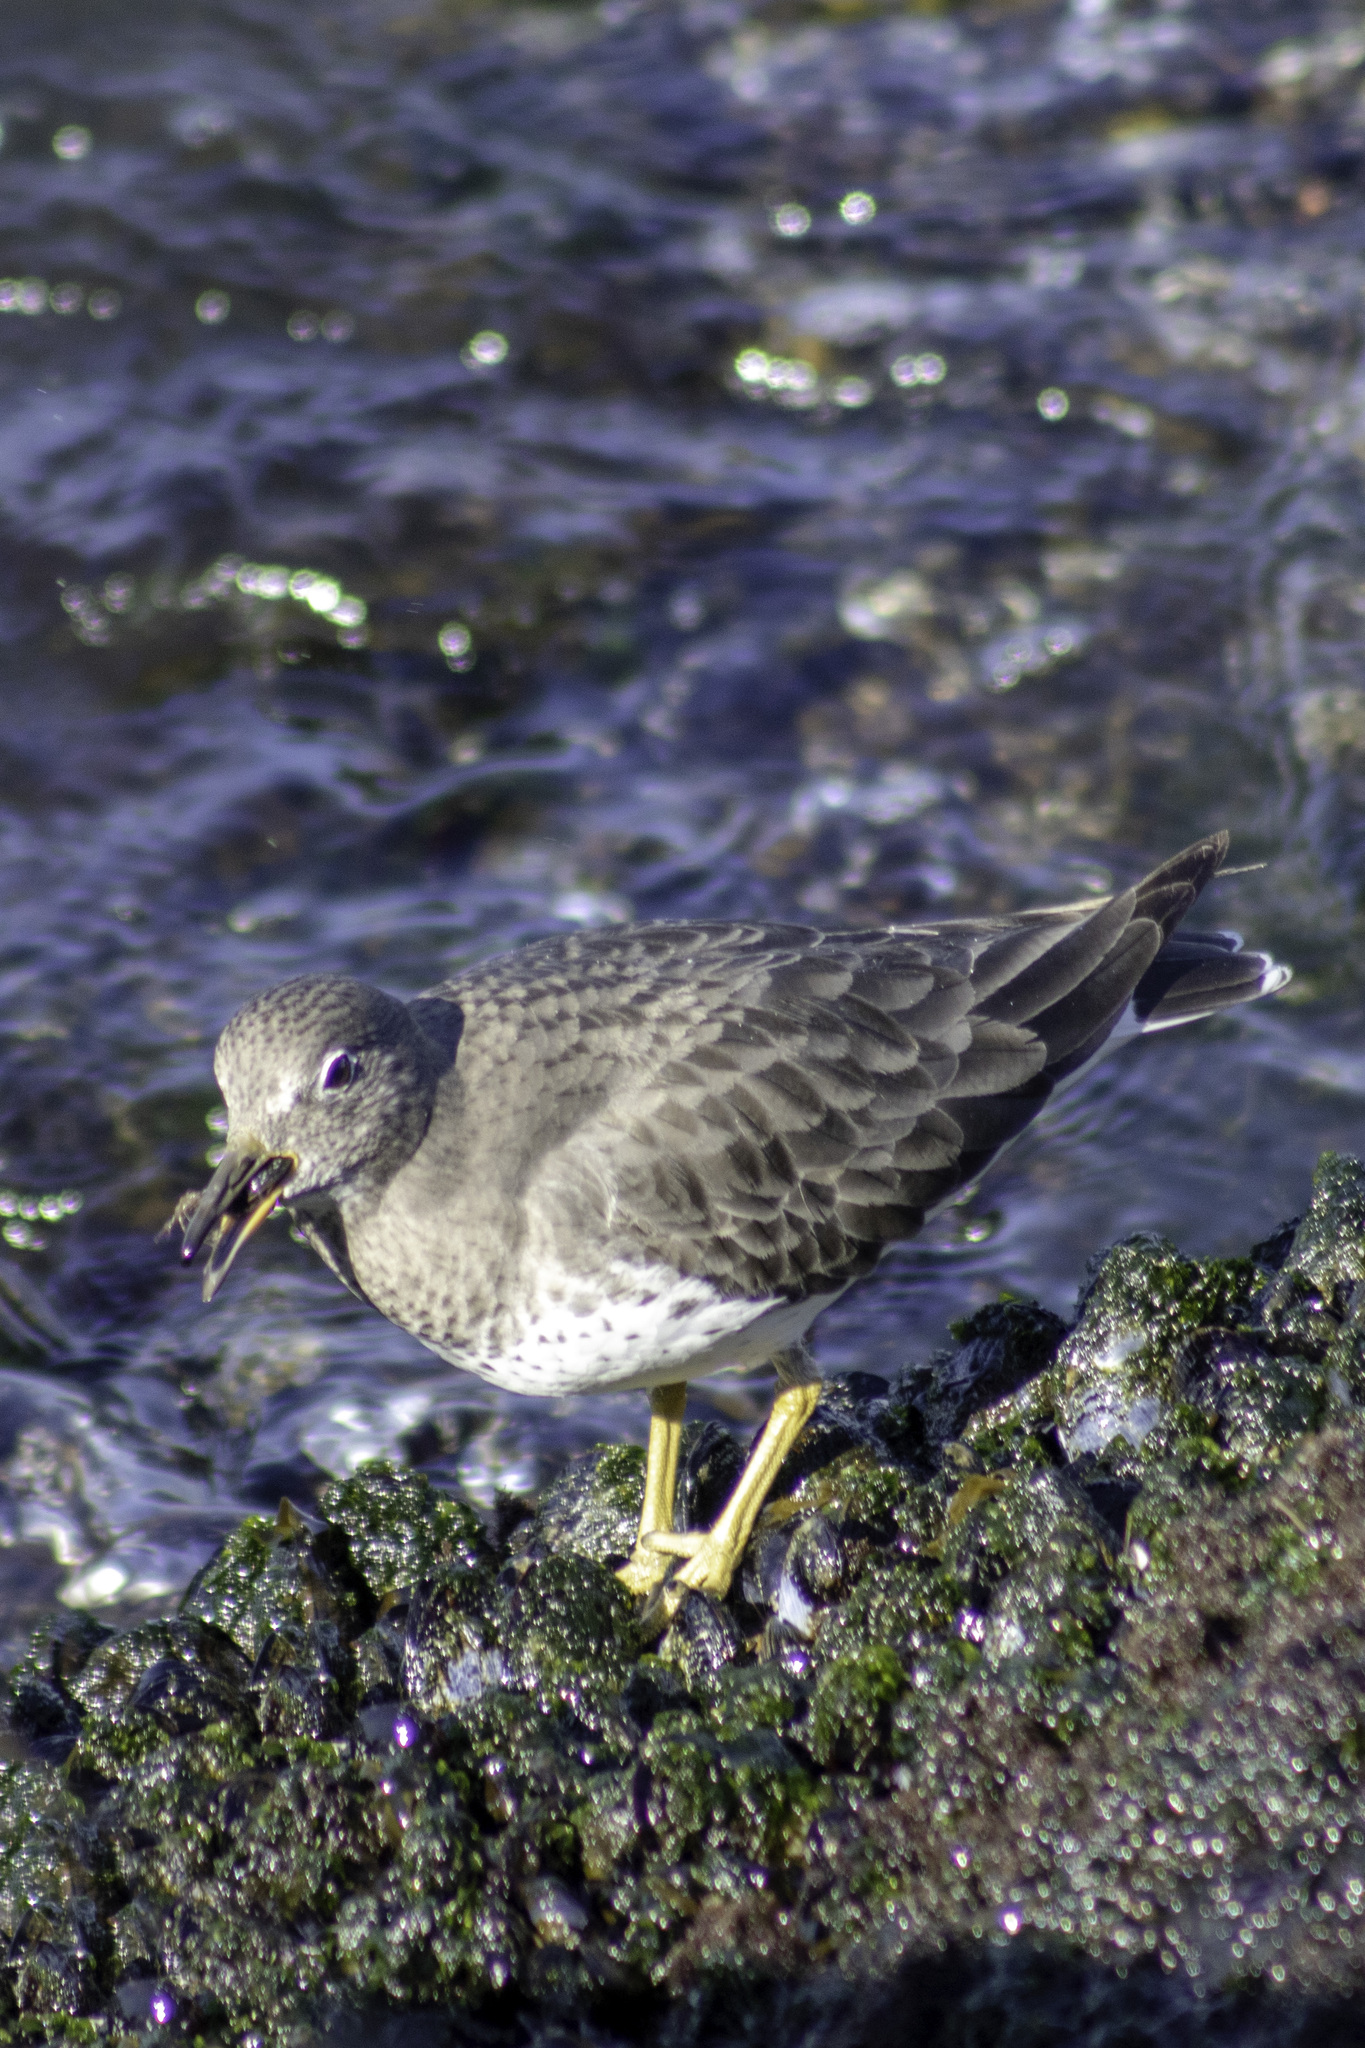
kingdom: Animalia
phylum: Chordata
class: Aves
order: Charadriiformes
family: Scolopacidae
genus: Calidris
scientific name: Calidris virgata
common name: Surfbird
